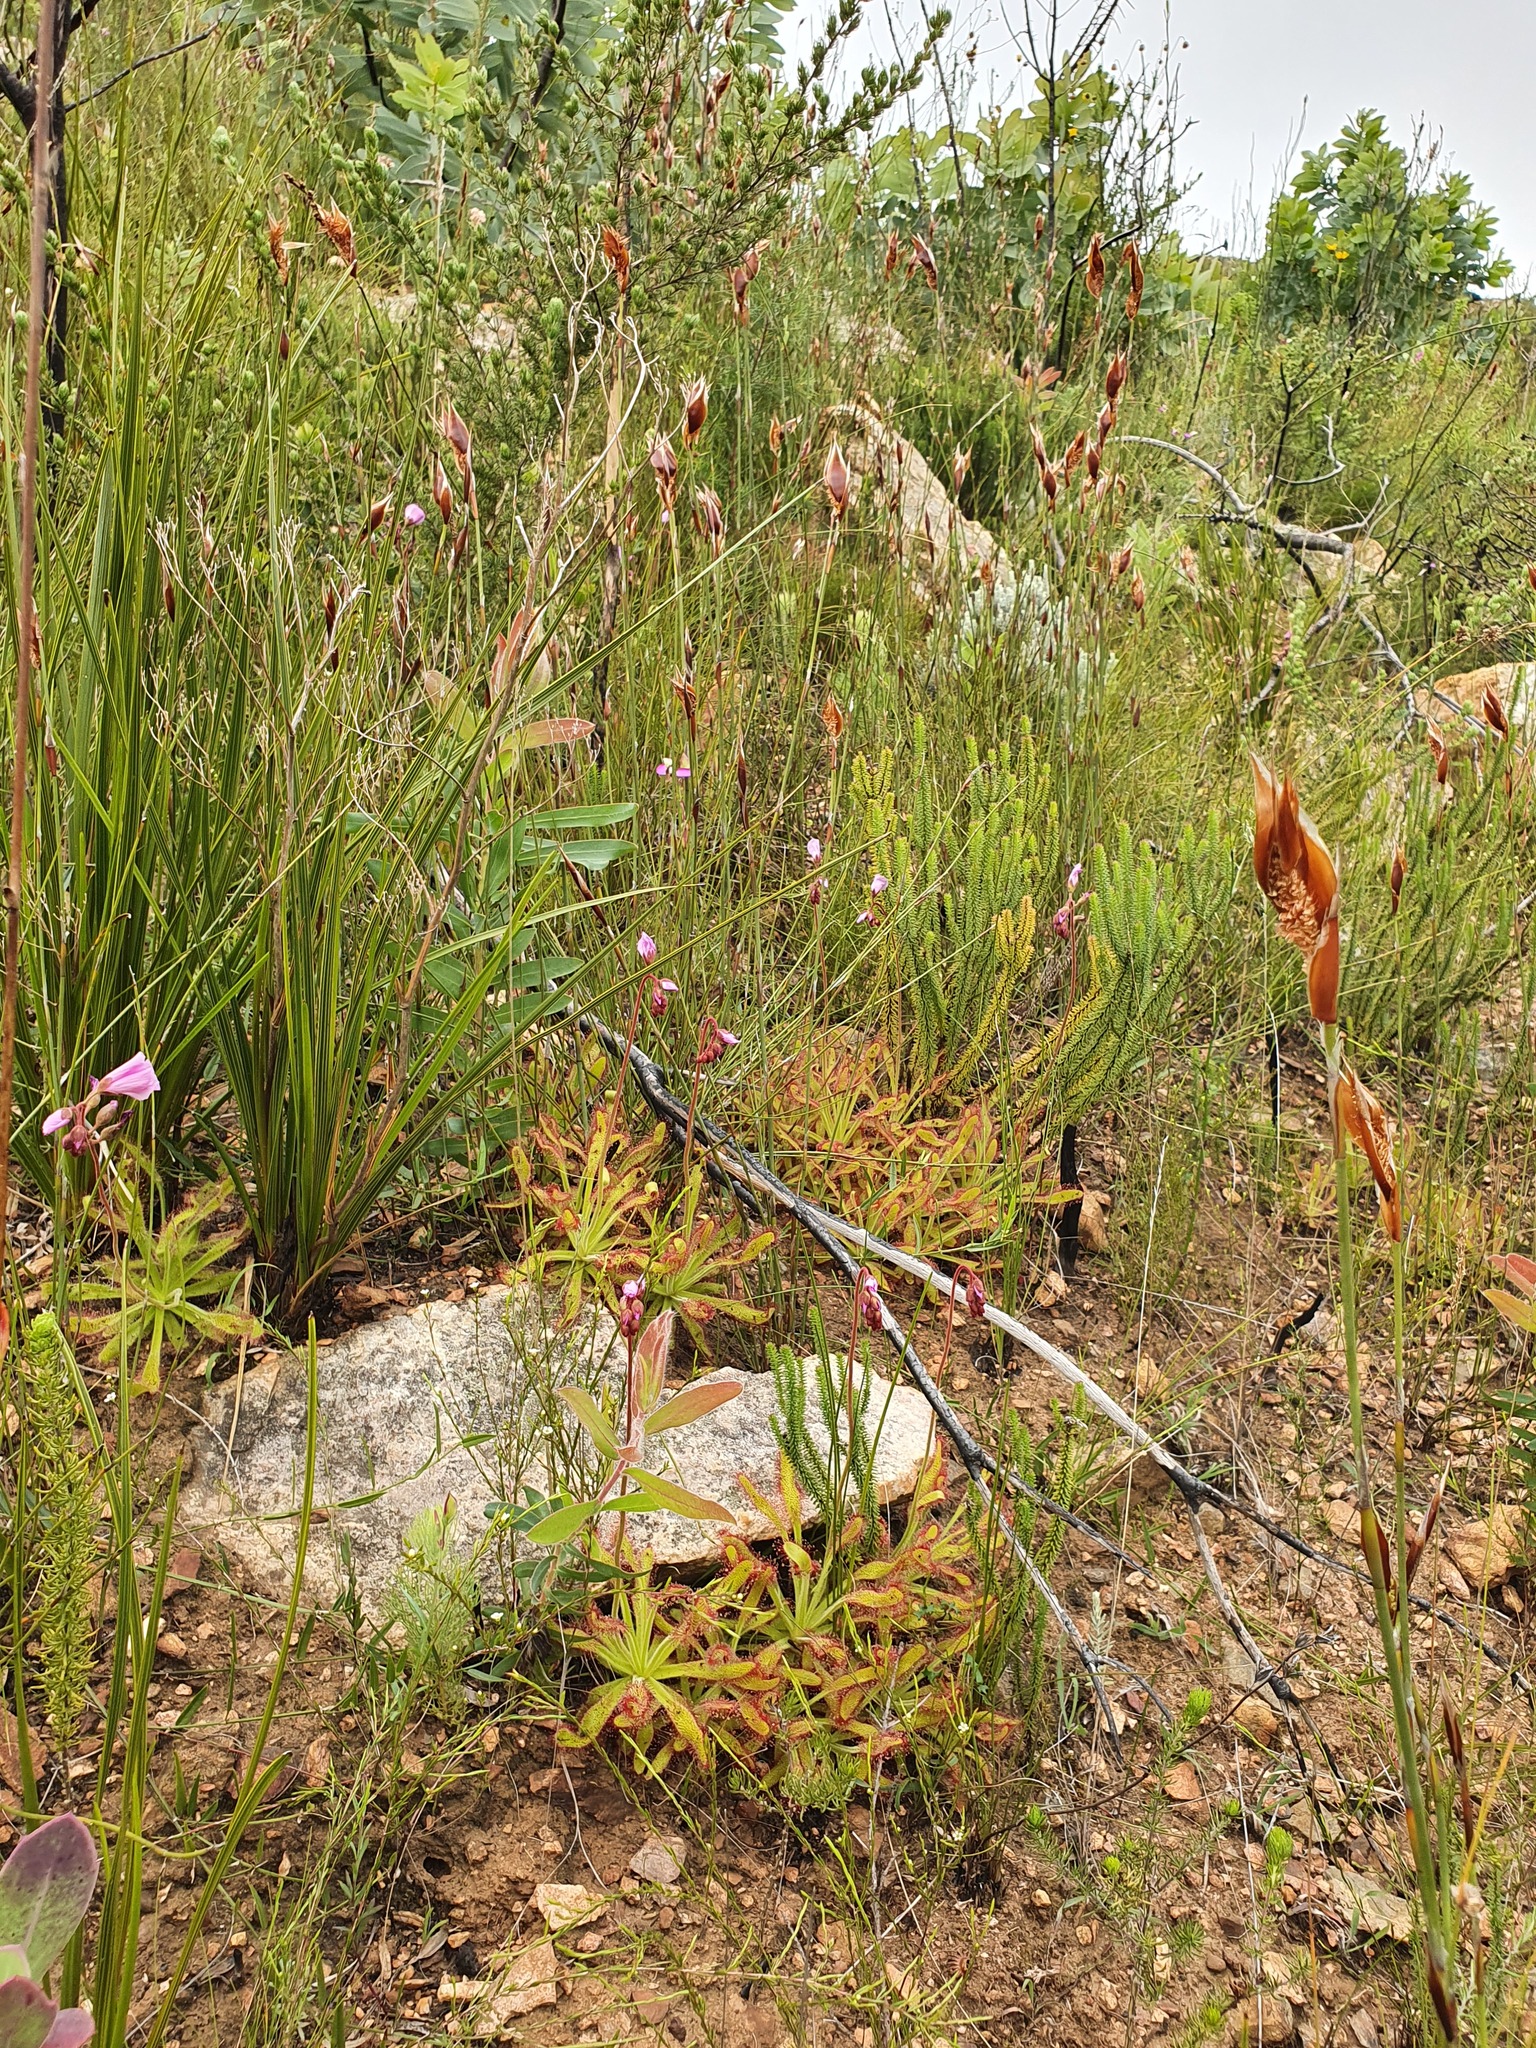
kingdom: Plantae
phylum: Tracheophyta
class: Magnoliopsida
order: Caryophyllales
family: Droseraceae
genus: Drosera
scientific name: Drosera hilaris
